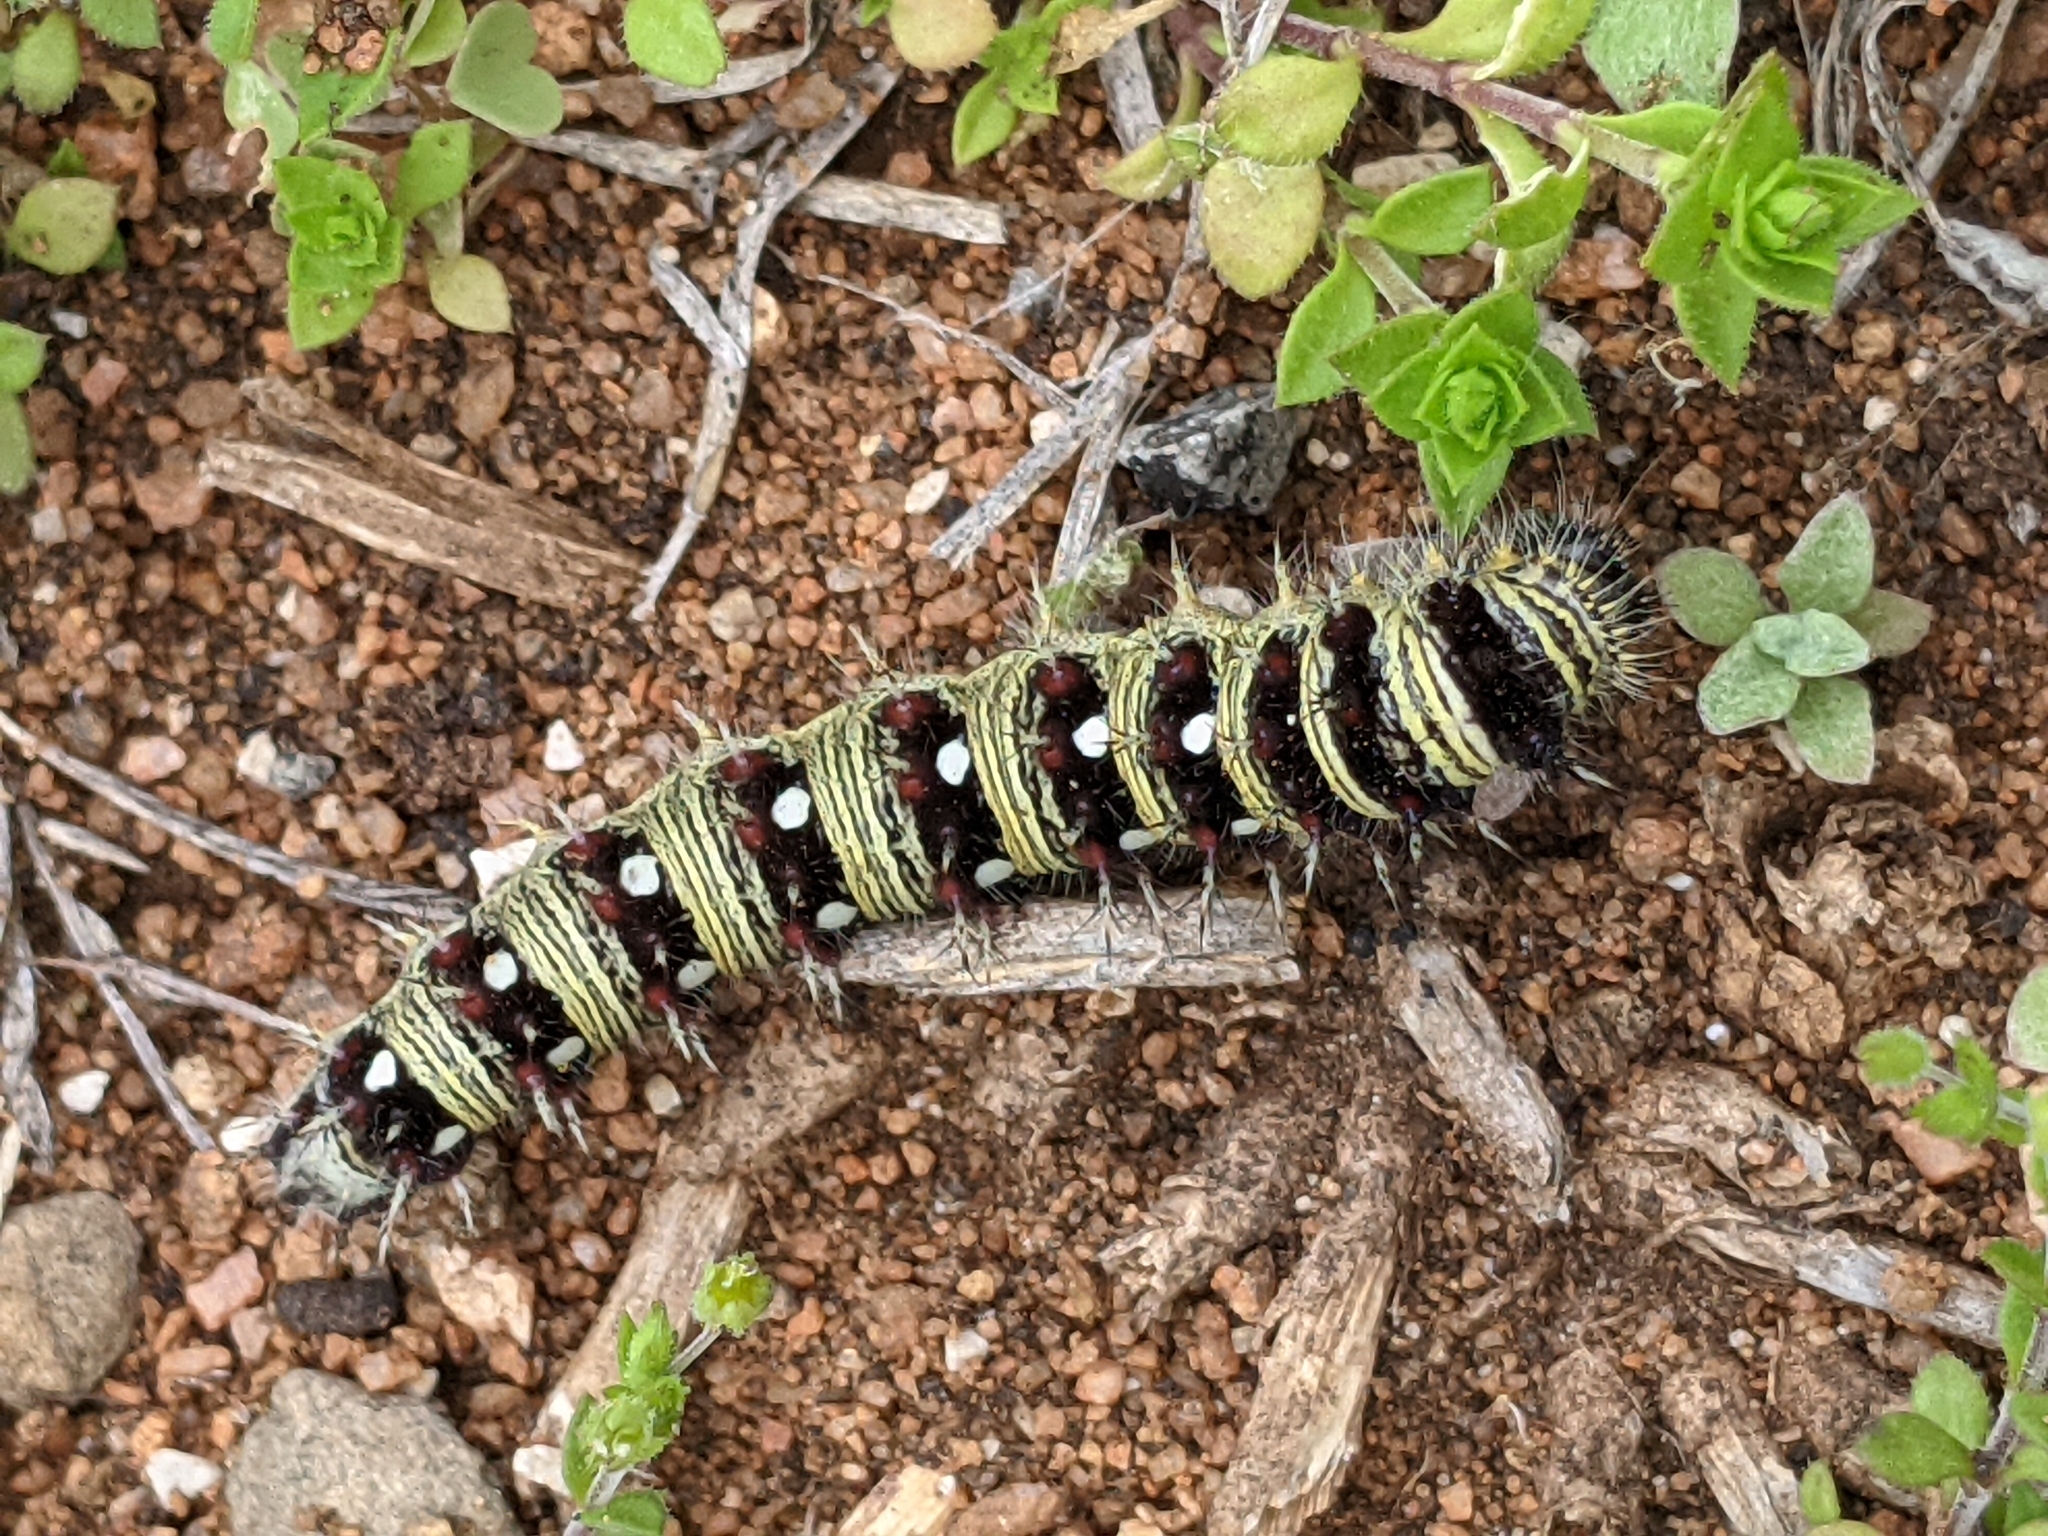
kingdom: Animalia
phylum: Arthropoda
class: Insecta
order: Lepidoptera
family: Nymphalidae
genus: Vanessa
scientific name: Vanessa virginiensis
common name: American lady
